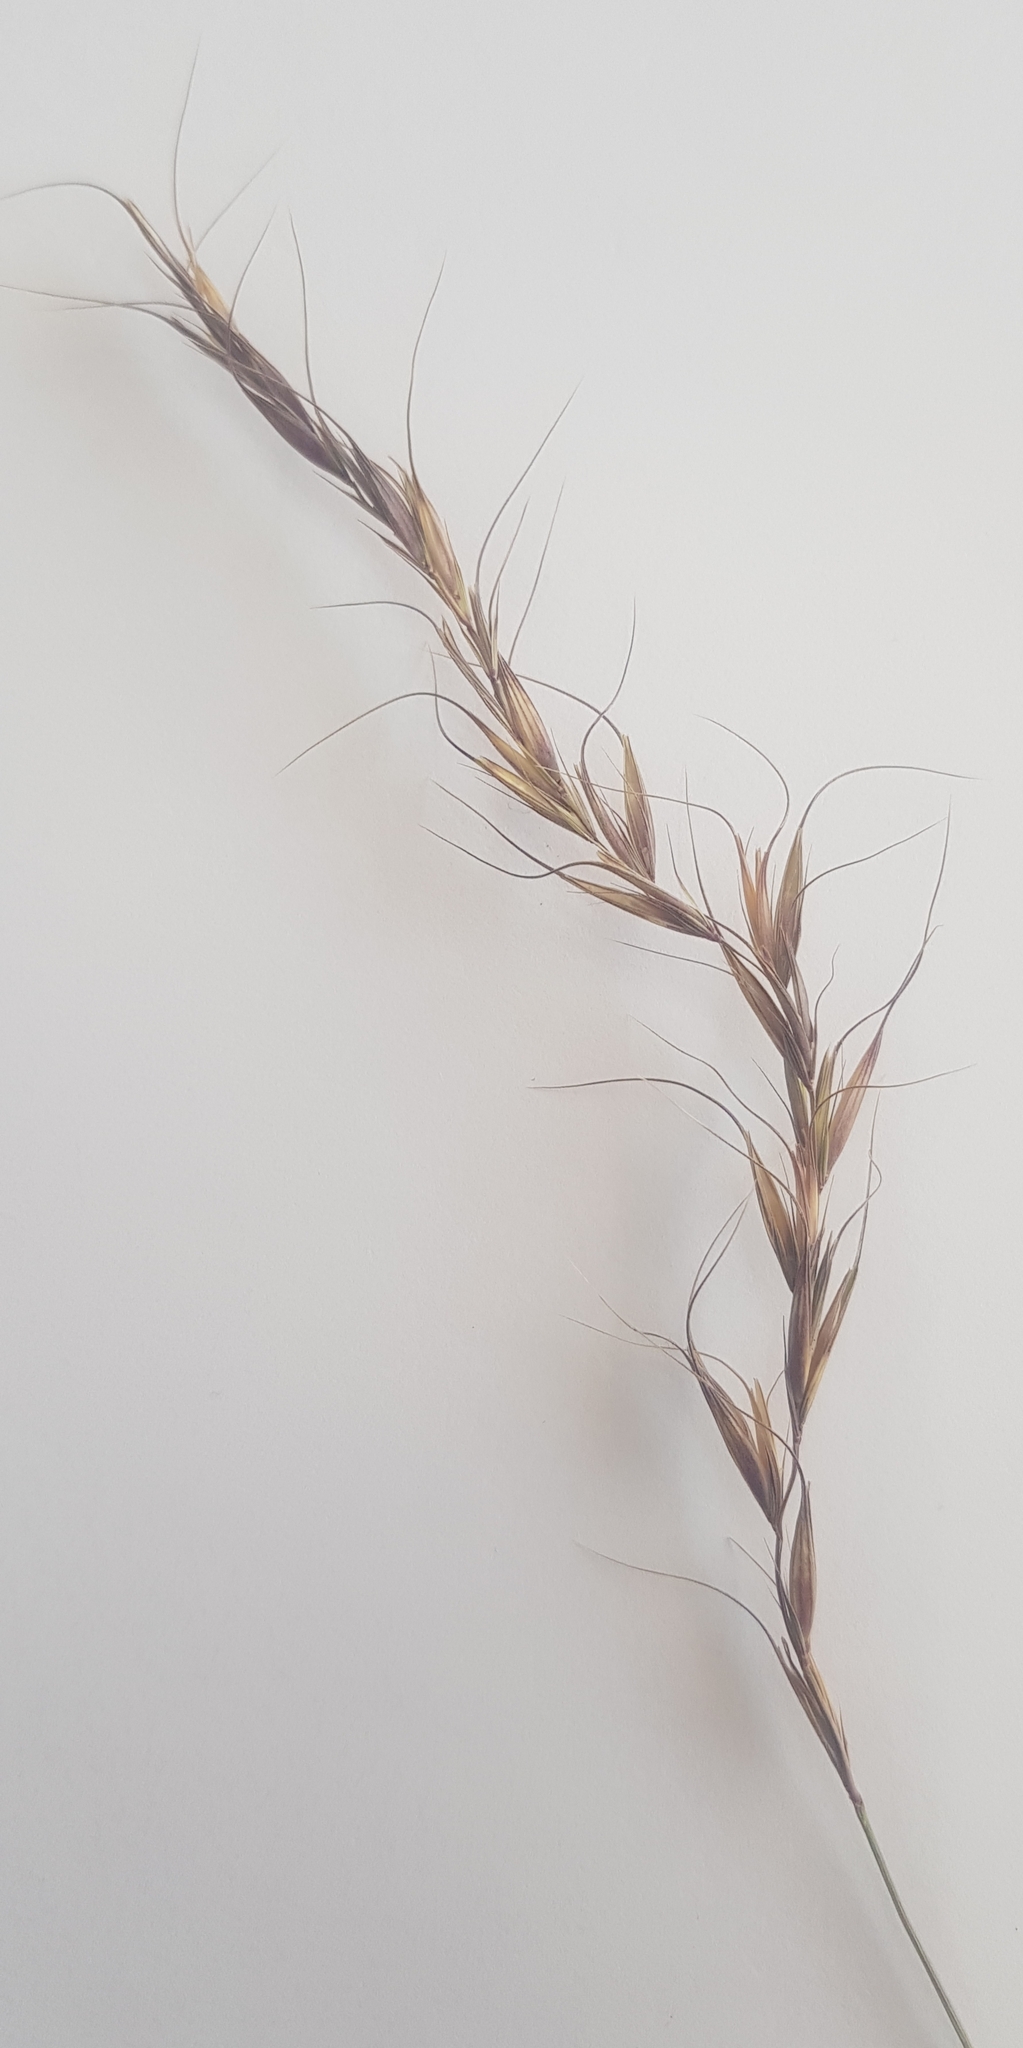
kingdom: Plantae
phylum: Tracheophyta
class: Liliopsida
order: Poales
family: Poaceae
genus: Aristida
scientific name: Aristida adscensionis
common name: Sixweeks threeawn
